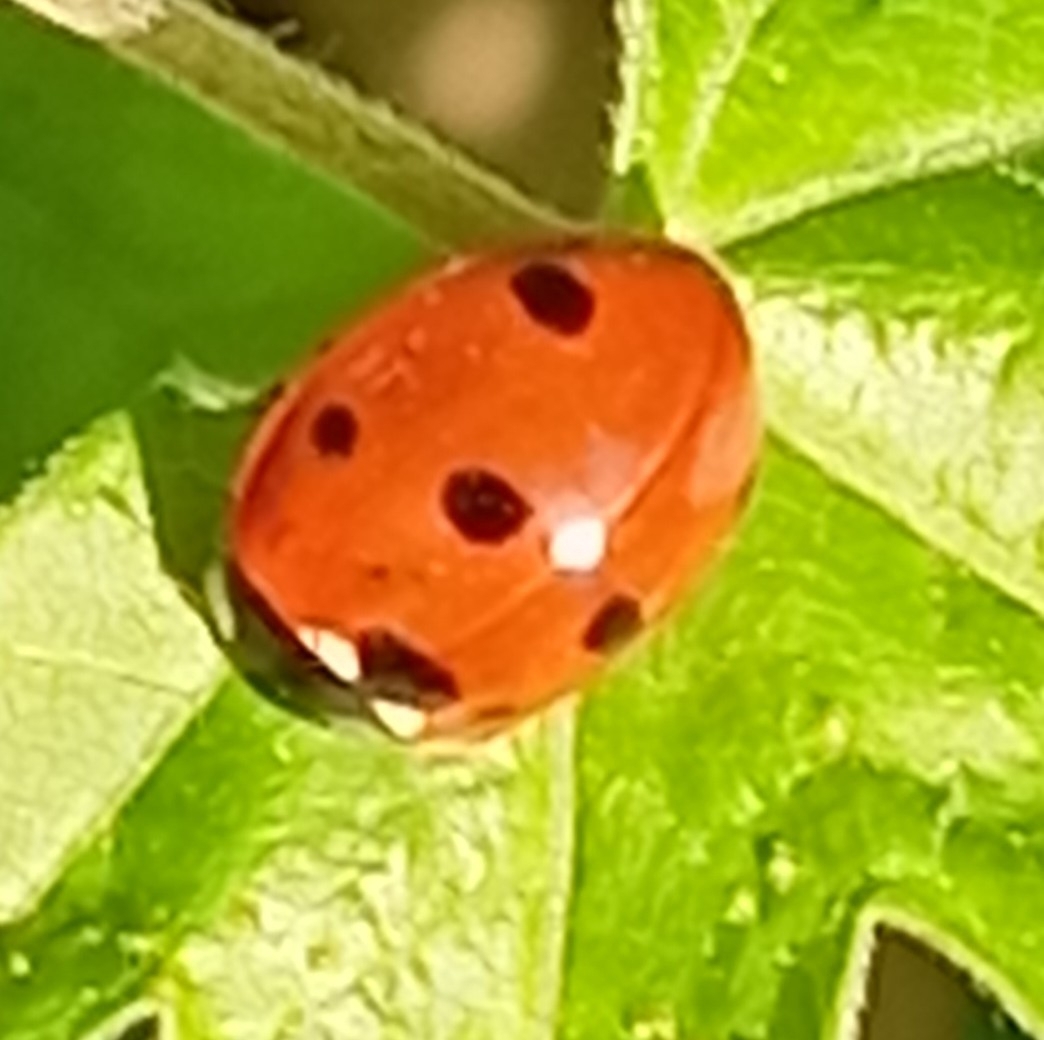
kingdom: Animalia
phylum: Arthropoda
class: Insecta
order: Coleoptera
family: Coccinellidae
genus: Coccinella
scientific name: Coccinella septempunctata
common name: Sevenspotted lady beetle
